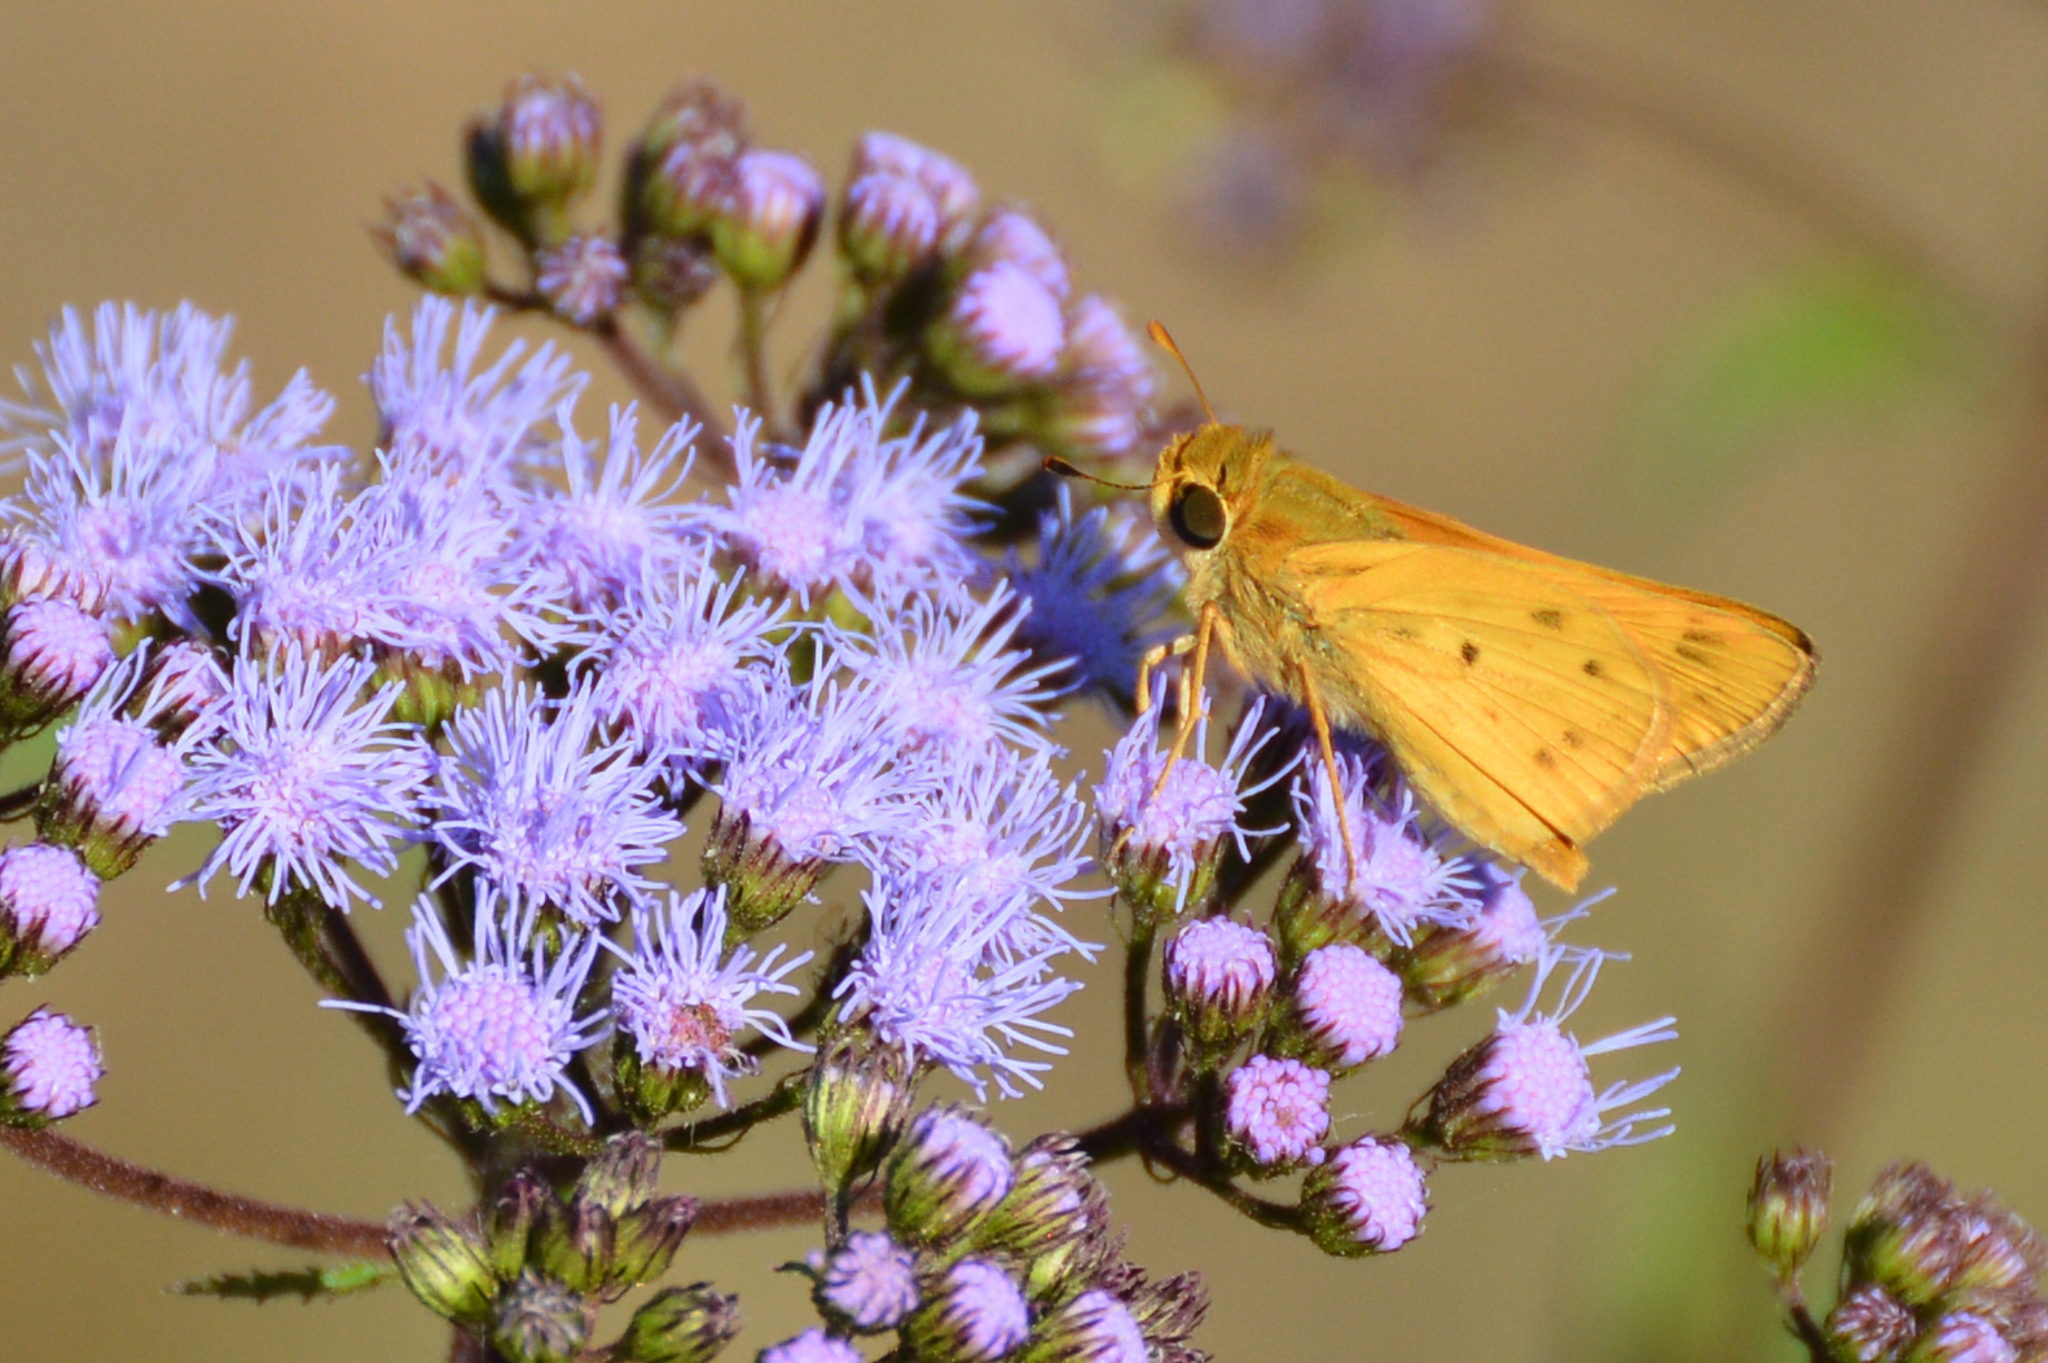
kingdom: Animalia
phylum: Arthropoda
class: Insecta
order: Lepidoptera
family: Hesperiidae
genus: Hylephila
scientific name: Hylephila phyleus
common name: Fiery skipper
